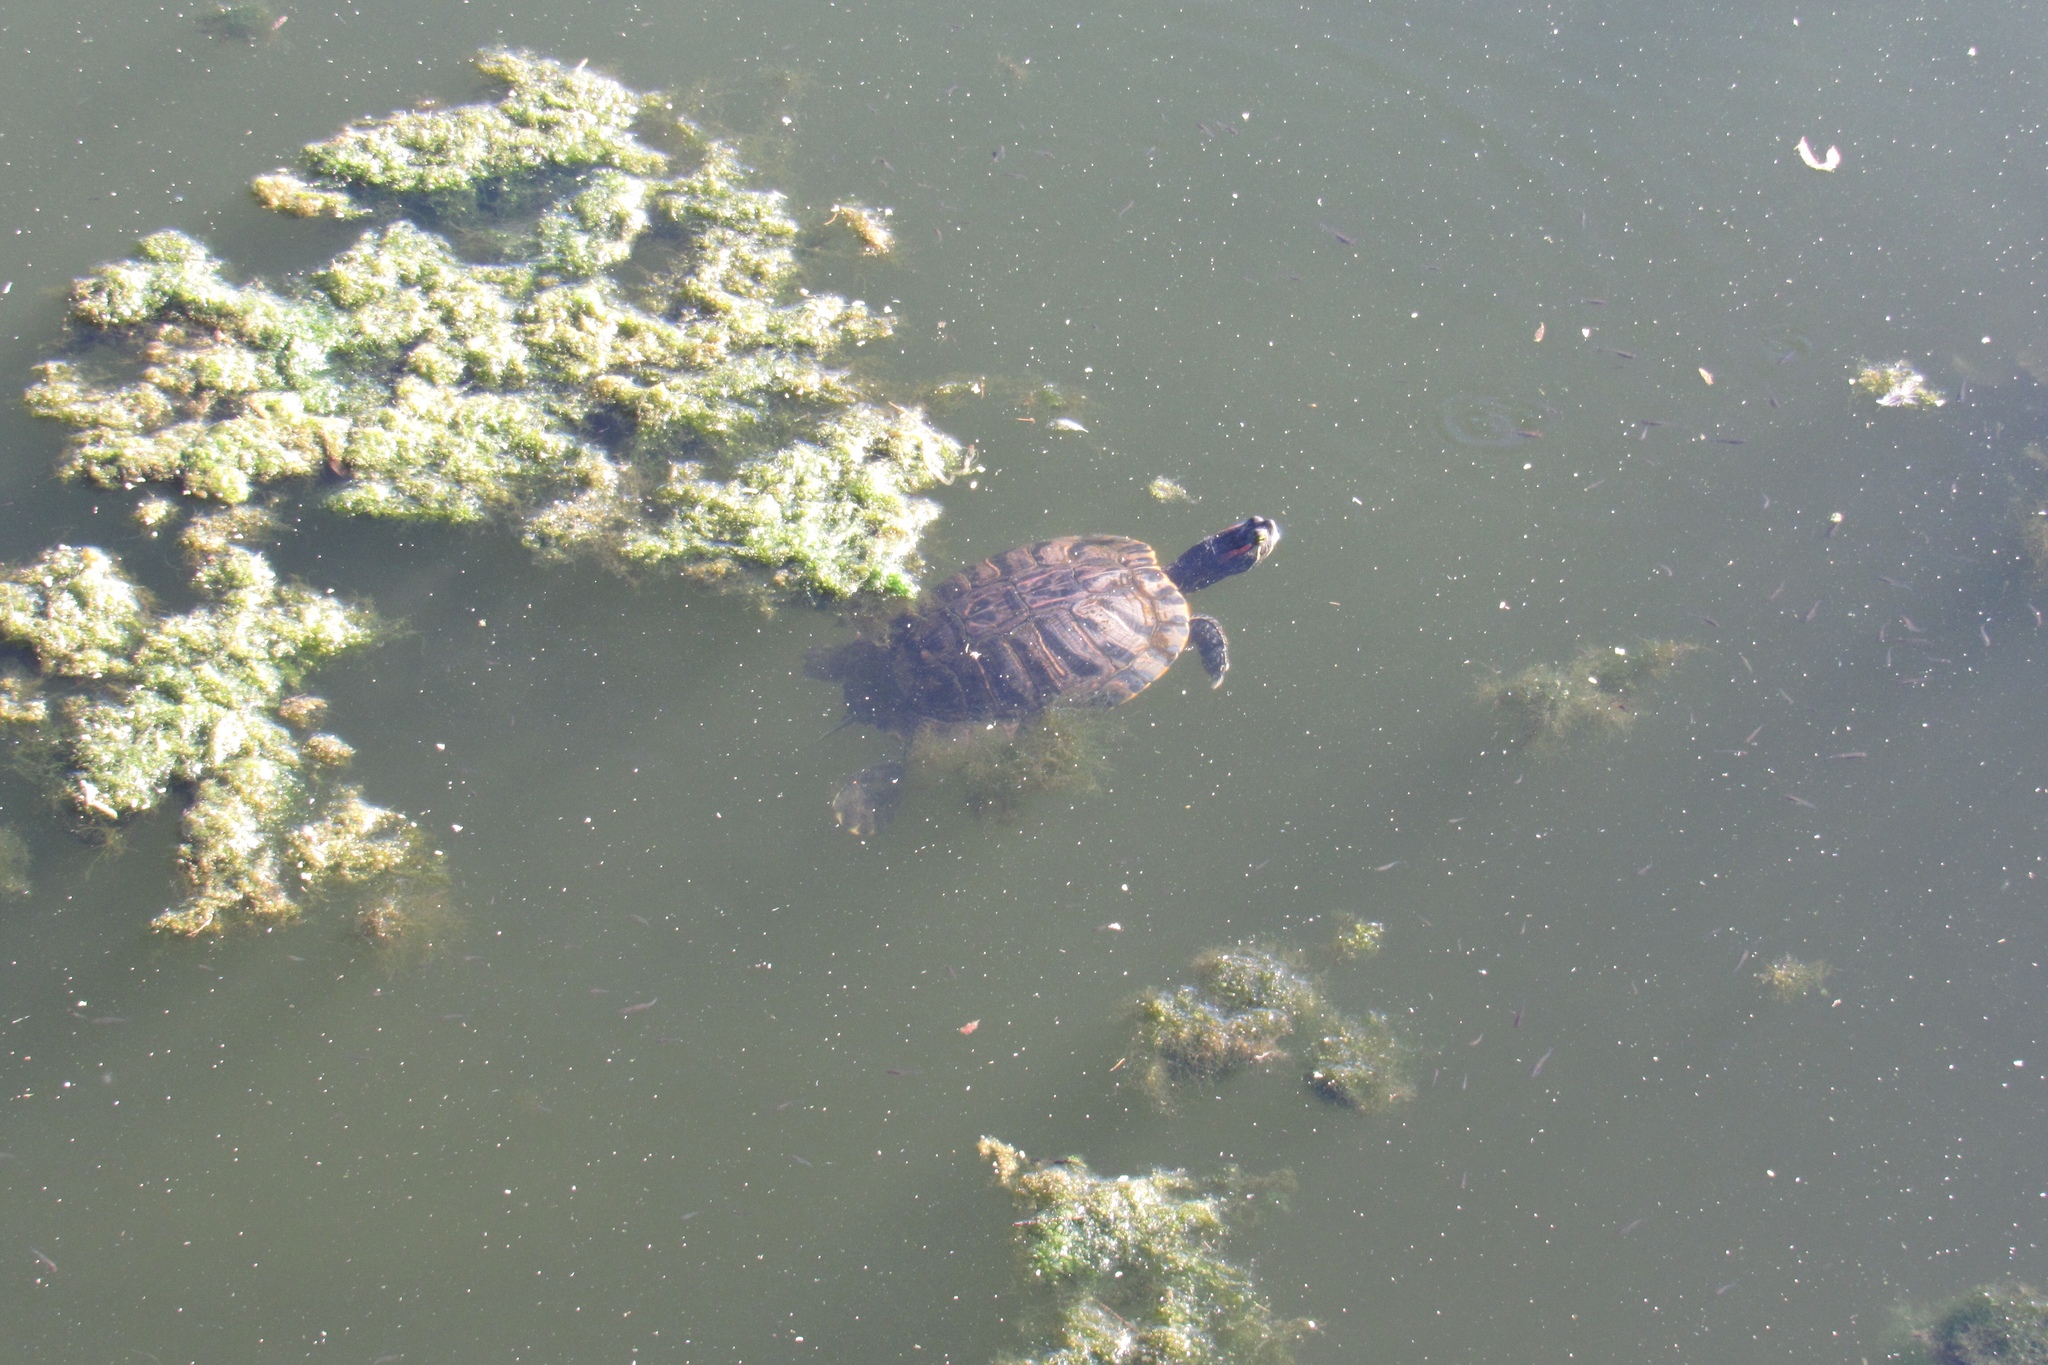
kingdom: Animalia
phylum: Chordata
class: Testudines
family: Emydidae
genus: Trachemys
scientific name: Trachemys scripta
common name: Slider
